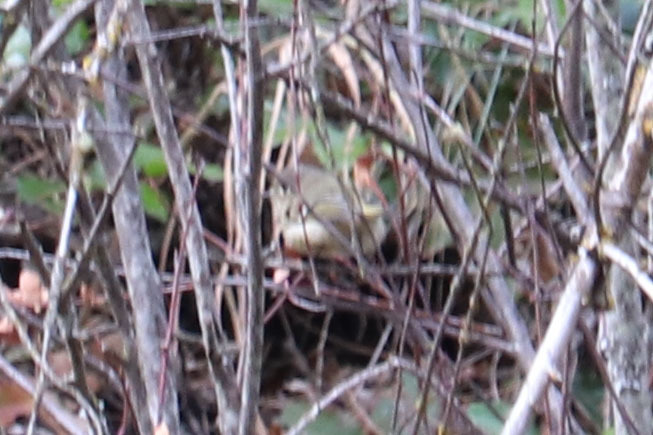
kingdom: Animalia
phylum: Chordata
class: Aves
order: Passeriformes
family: Regulidae
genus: Regulus
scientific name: Regulus calendula
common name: Ruby-crowned kinglet
